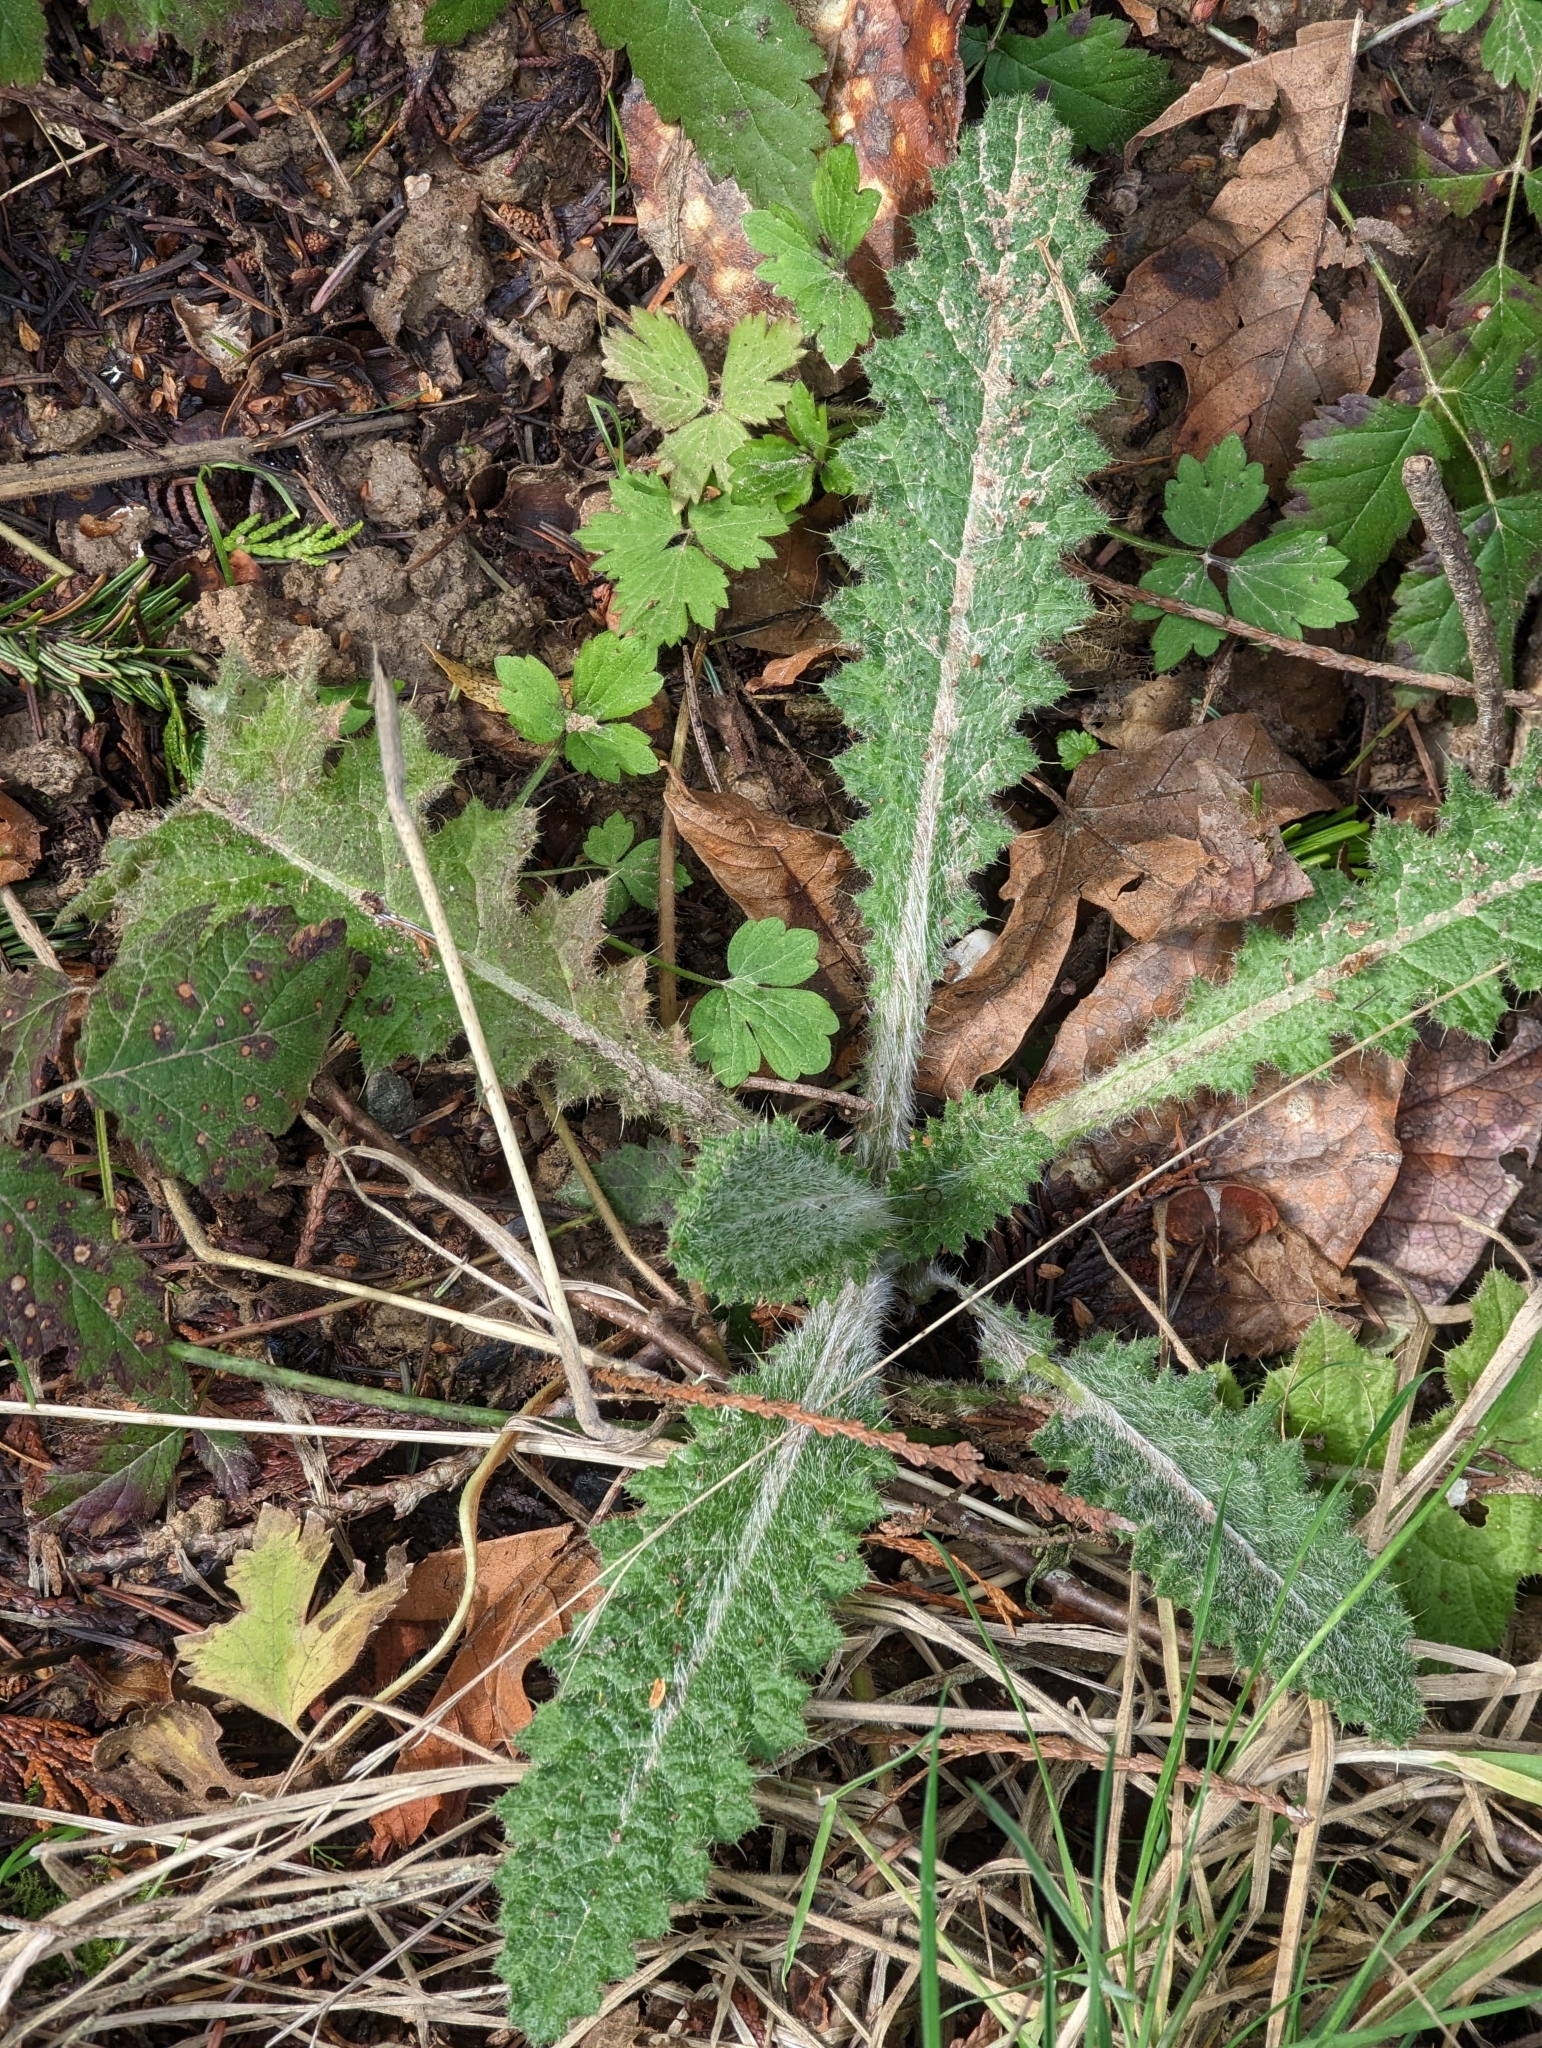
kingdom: Plantae
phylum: Tracheophyta
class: Magnoliopsida
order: Asterales
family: Asteraceae
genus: Cirsium
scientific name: Cirsium vulgare
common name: Bull thistle
